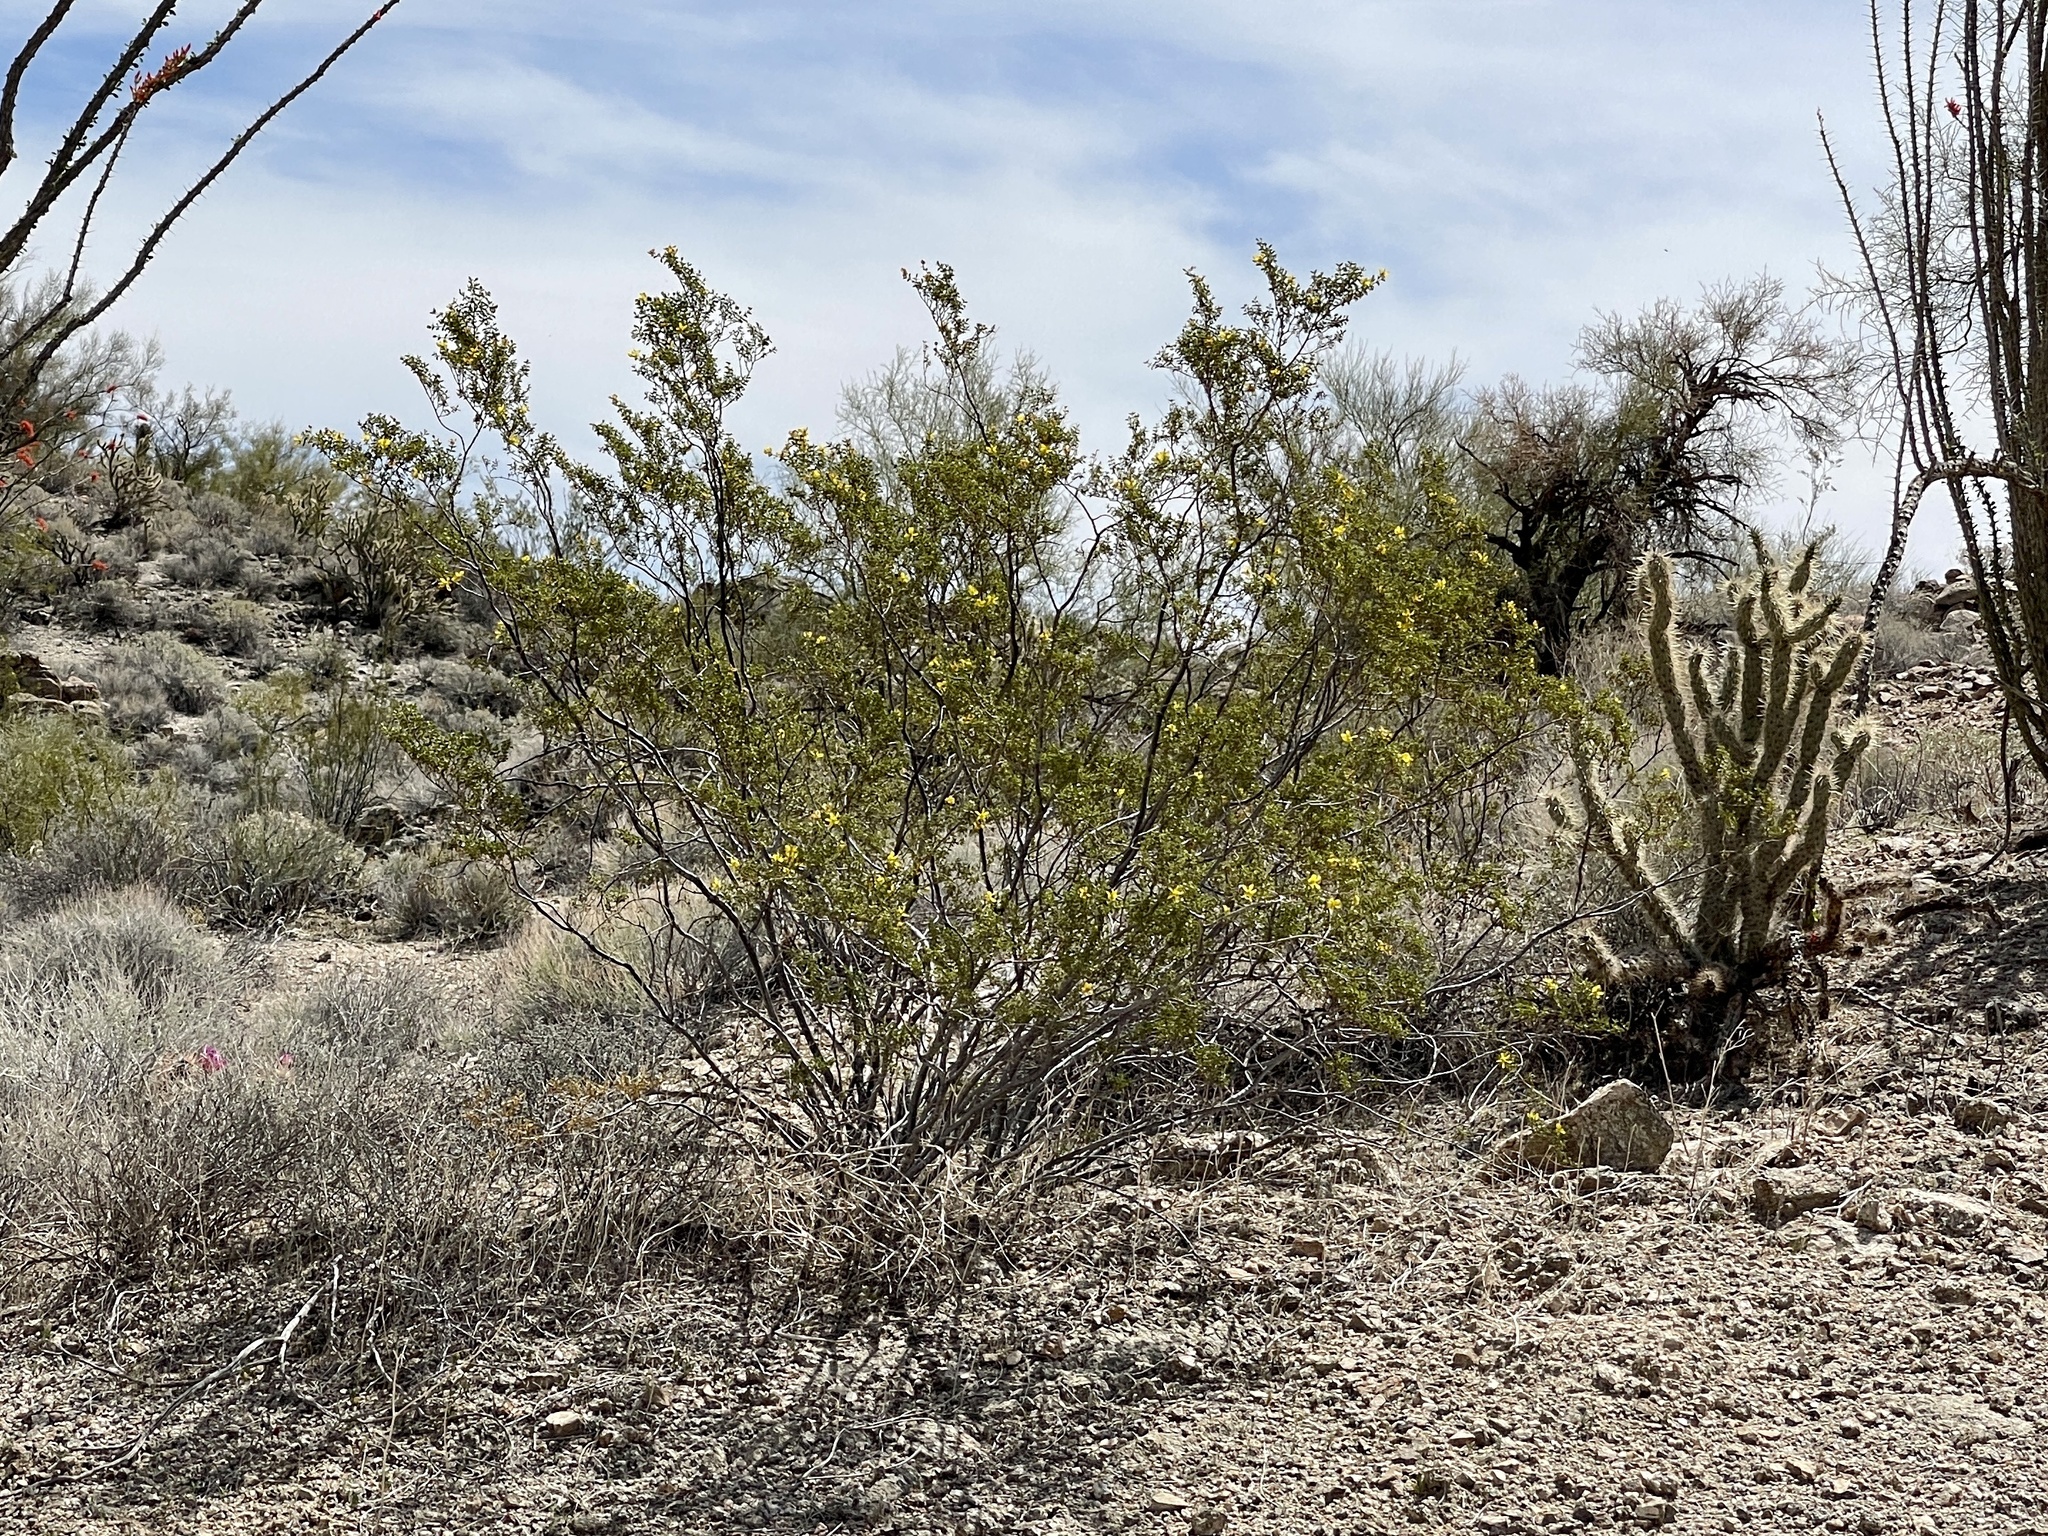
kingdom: Plantae
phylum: Tracheophyta
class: Magnoliopsida
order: Zygophyllales
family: Zygophyllaceae
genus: Larrea
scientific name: Larrea tridentata
